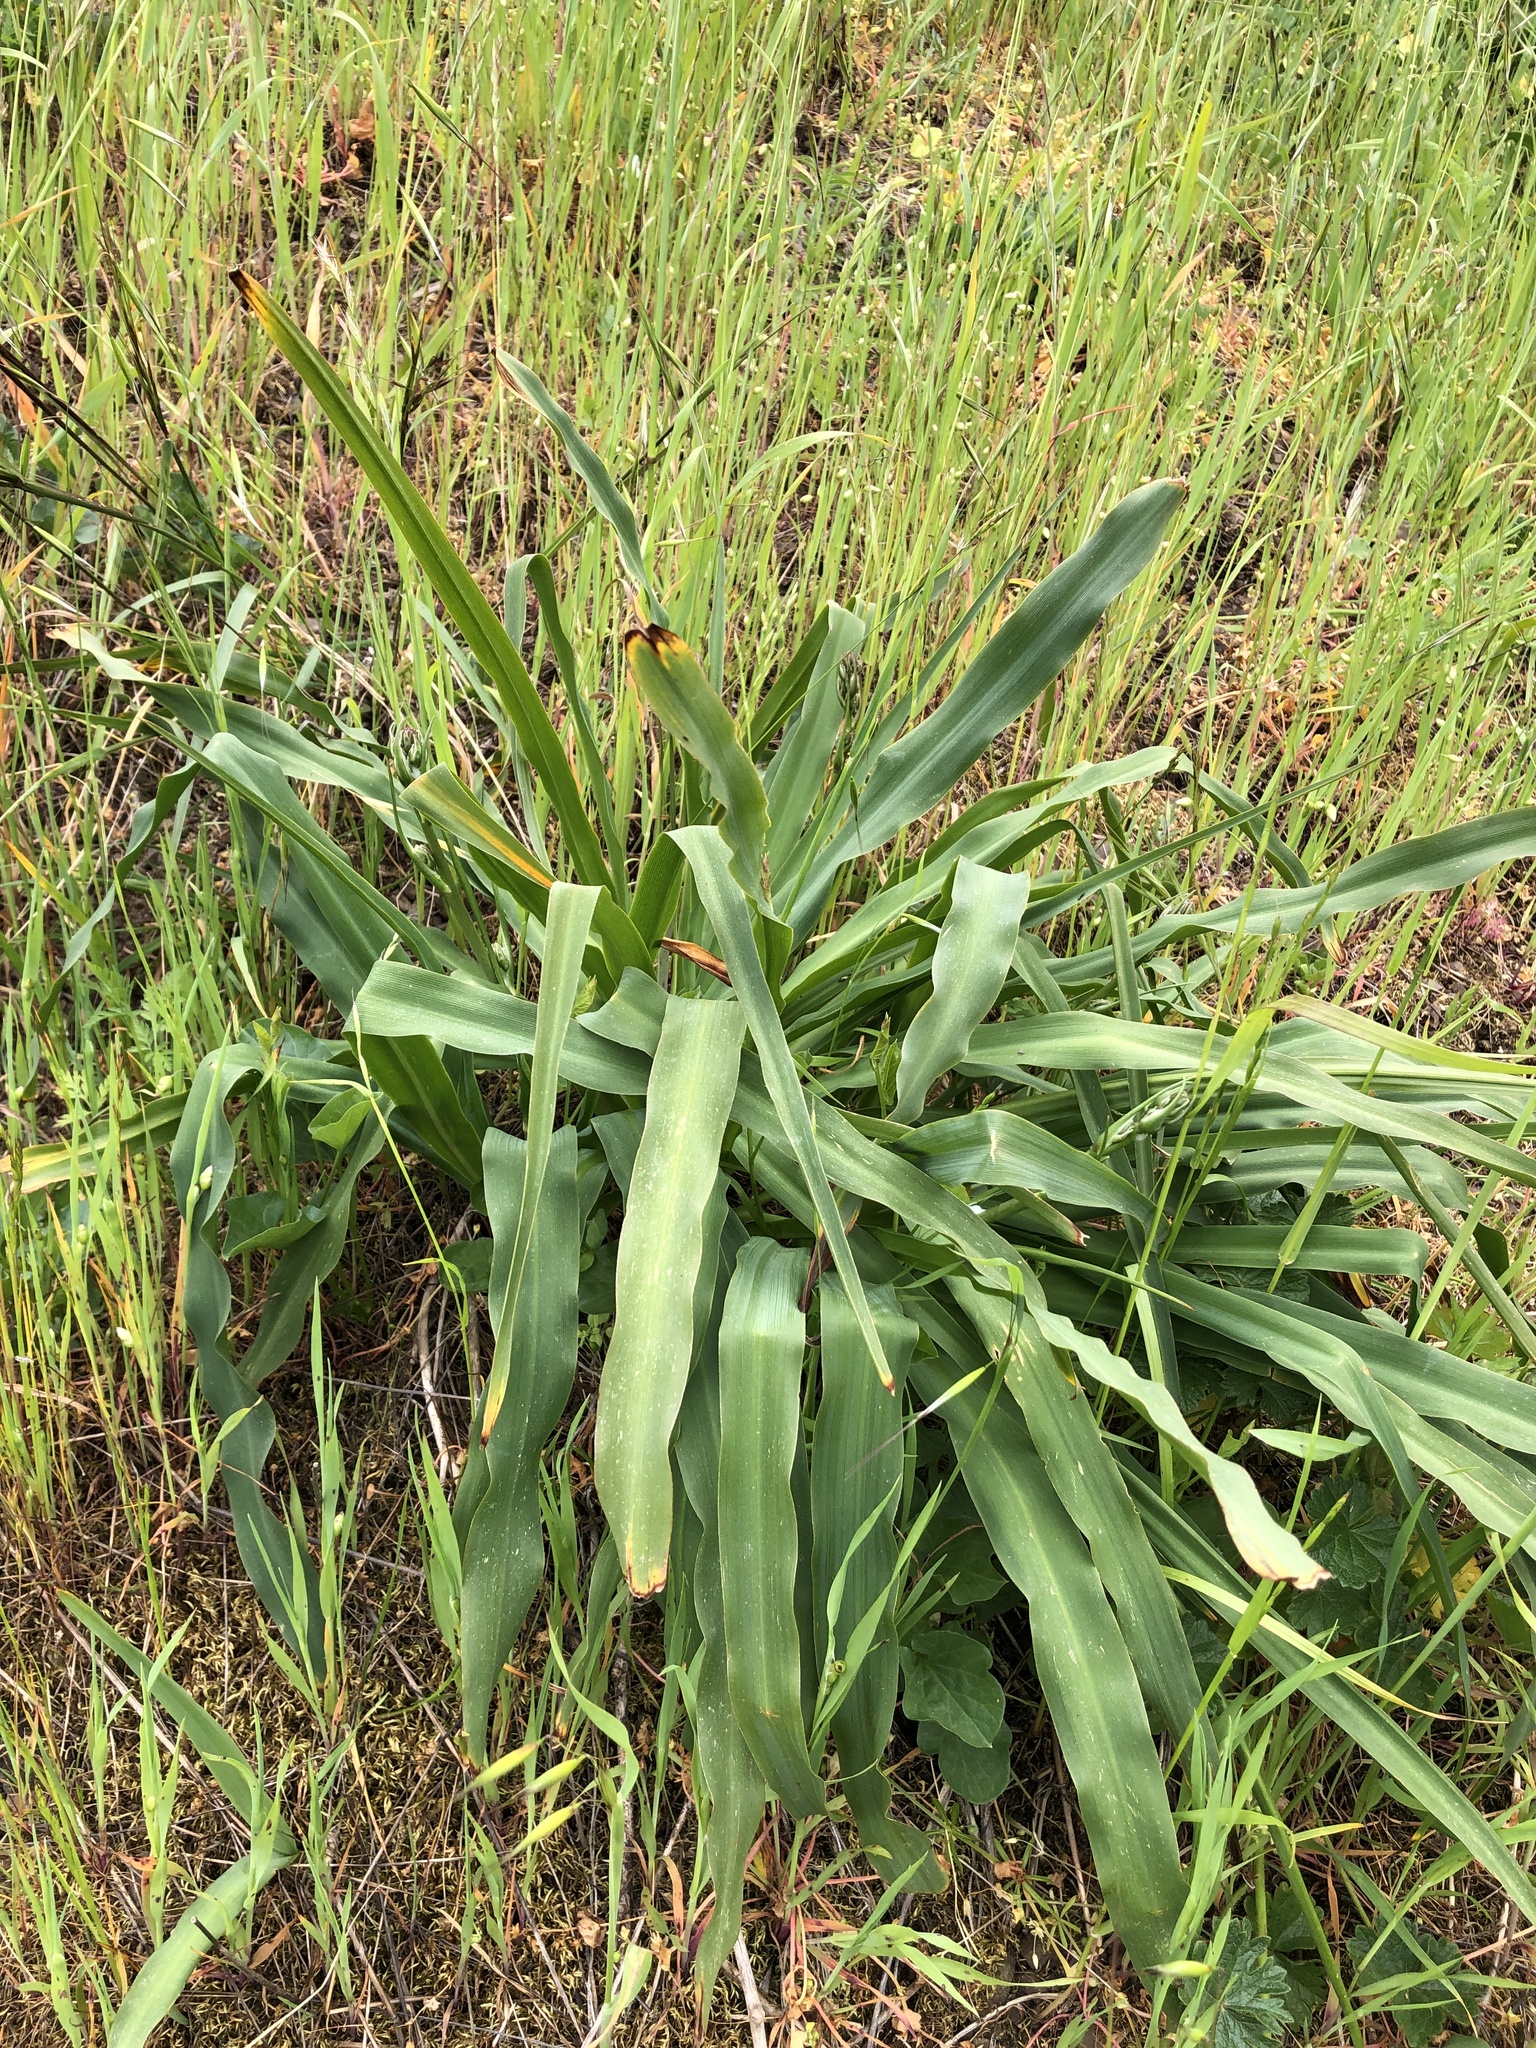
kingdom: Plantae
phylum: Tracheophyta
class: Liliopsida
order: Asparagales
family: Asparagaceae
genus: Chlorogalum
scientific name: Chlorogalum pomeridianum
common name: Amole
